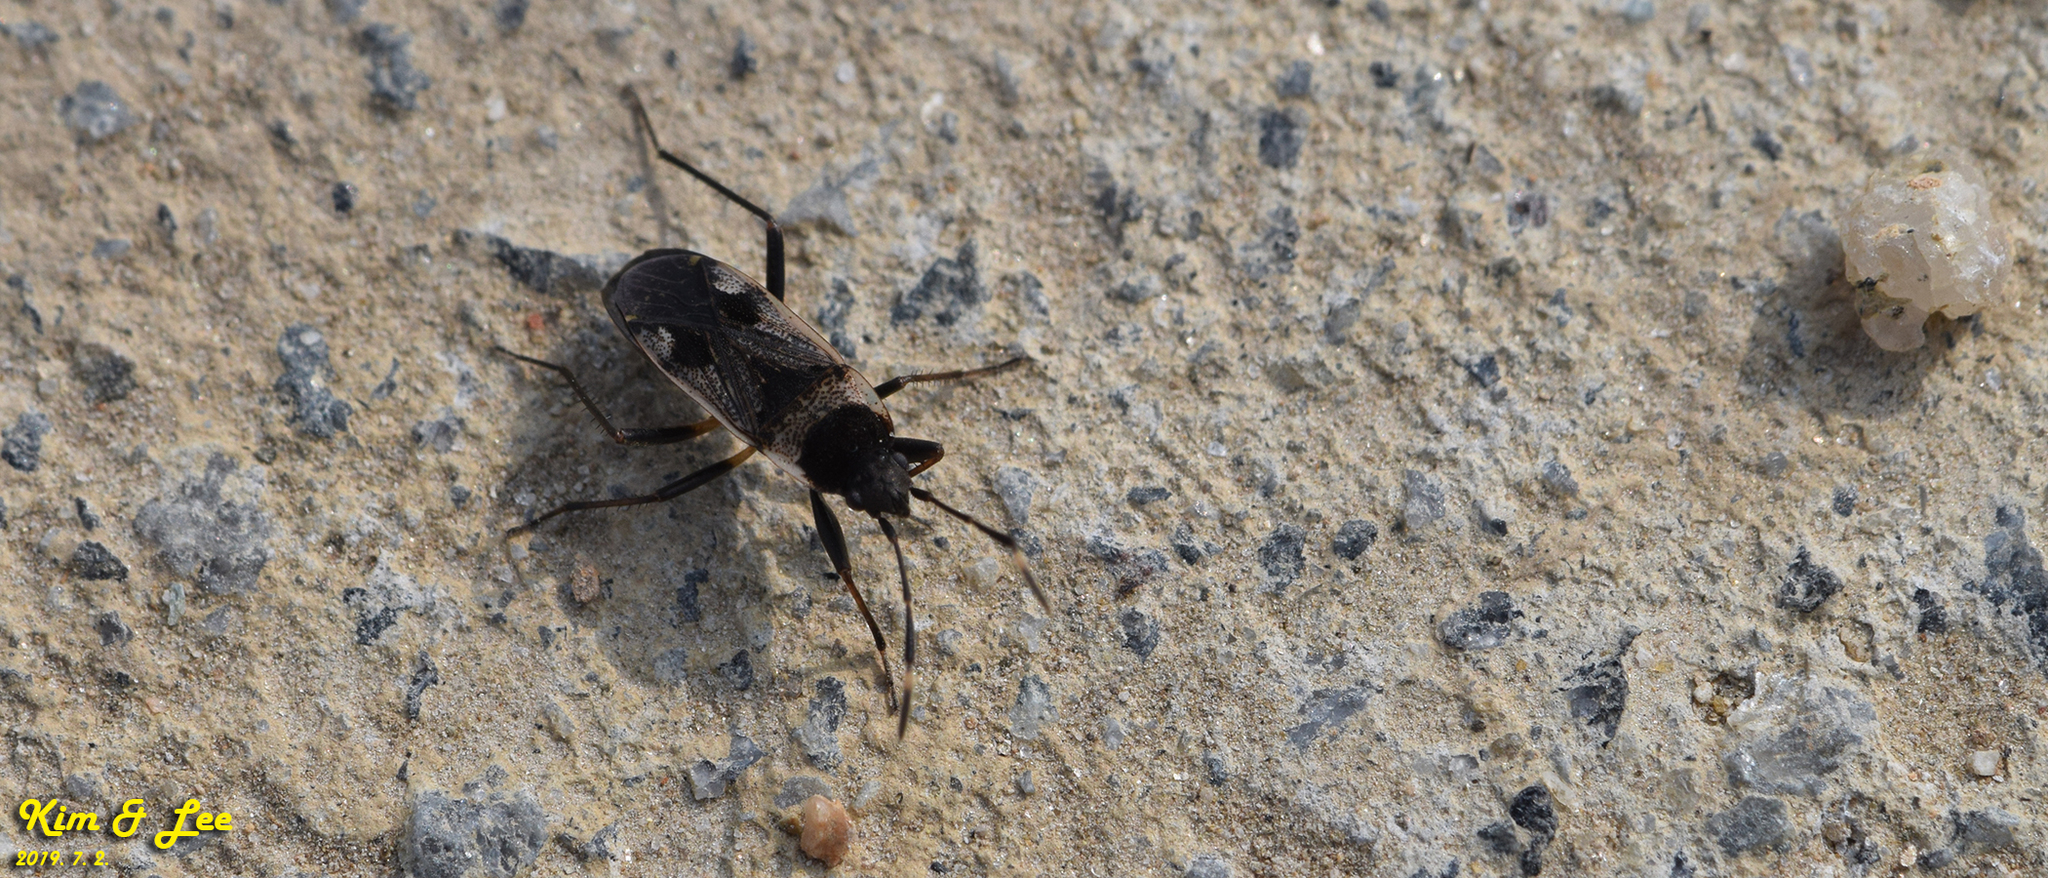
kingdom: Animalia
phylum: Arthropoda
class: Insecta
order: Hemiptera
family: Rhyparochromidae
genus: Panaorus
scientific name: Panaorus csikii
